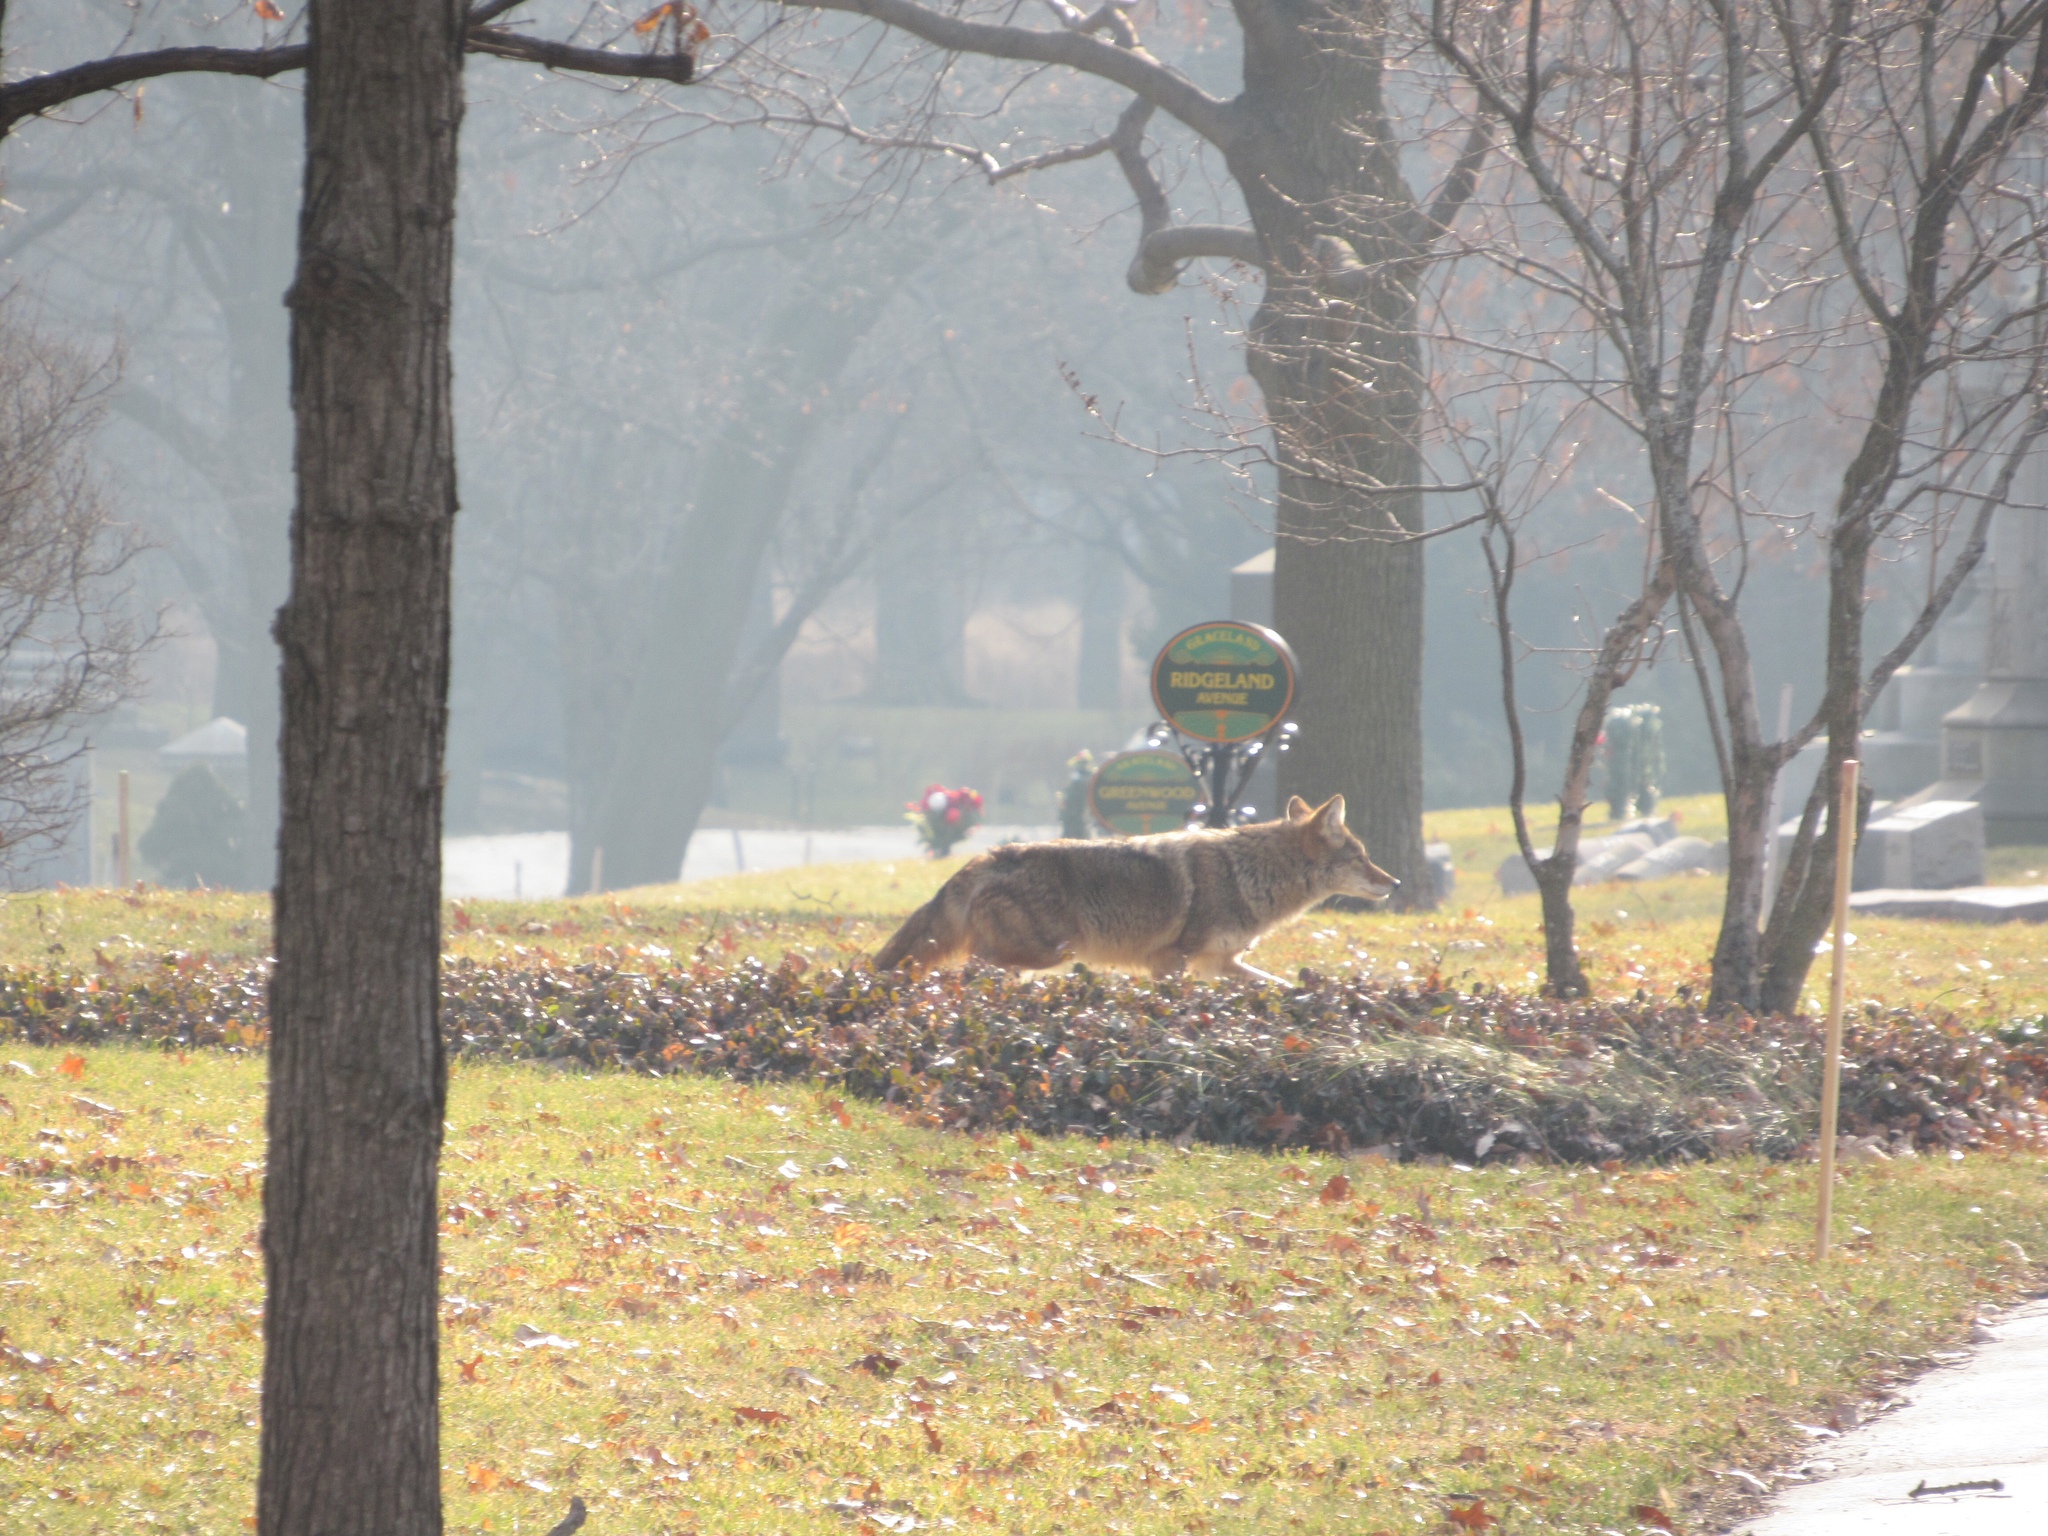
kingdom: Animalia
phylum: Chordata
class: Mammalia
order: Carnivora
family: Canidae
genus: Canis
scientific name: Canis latrans
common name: Coyote
